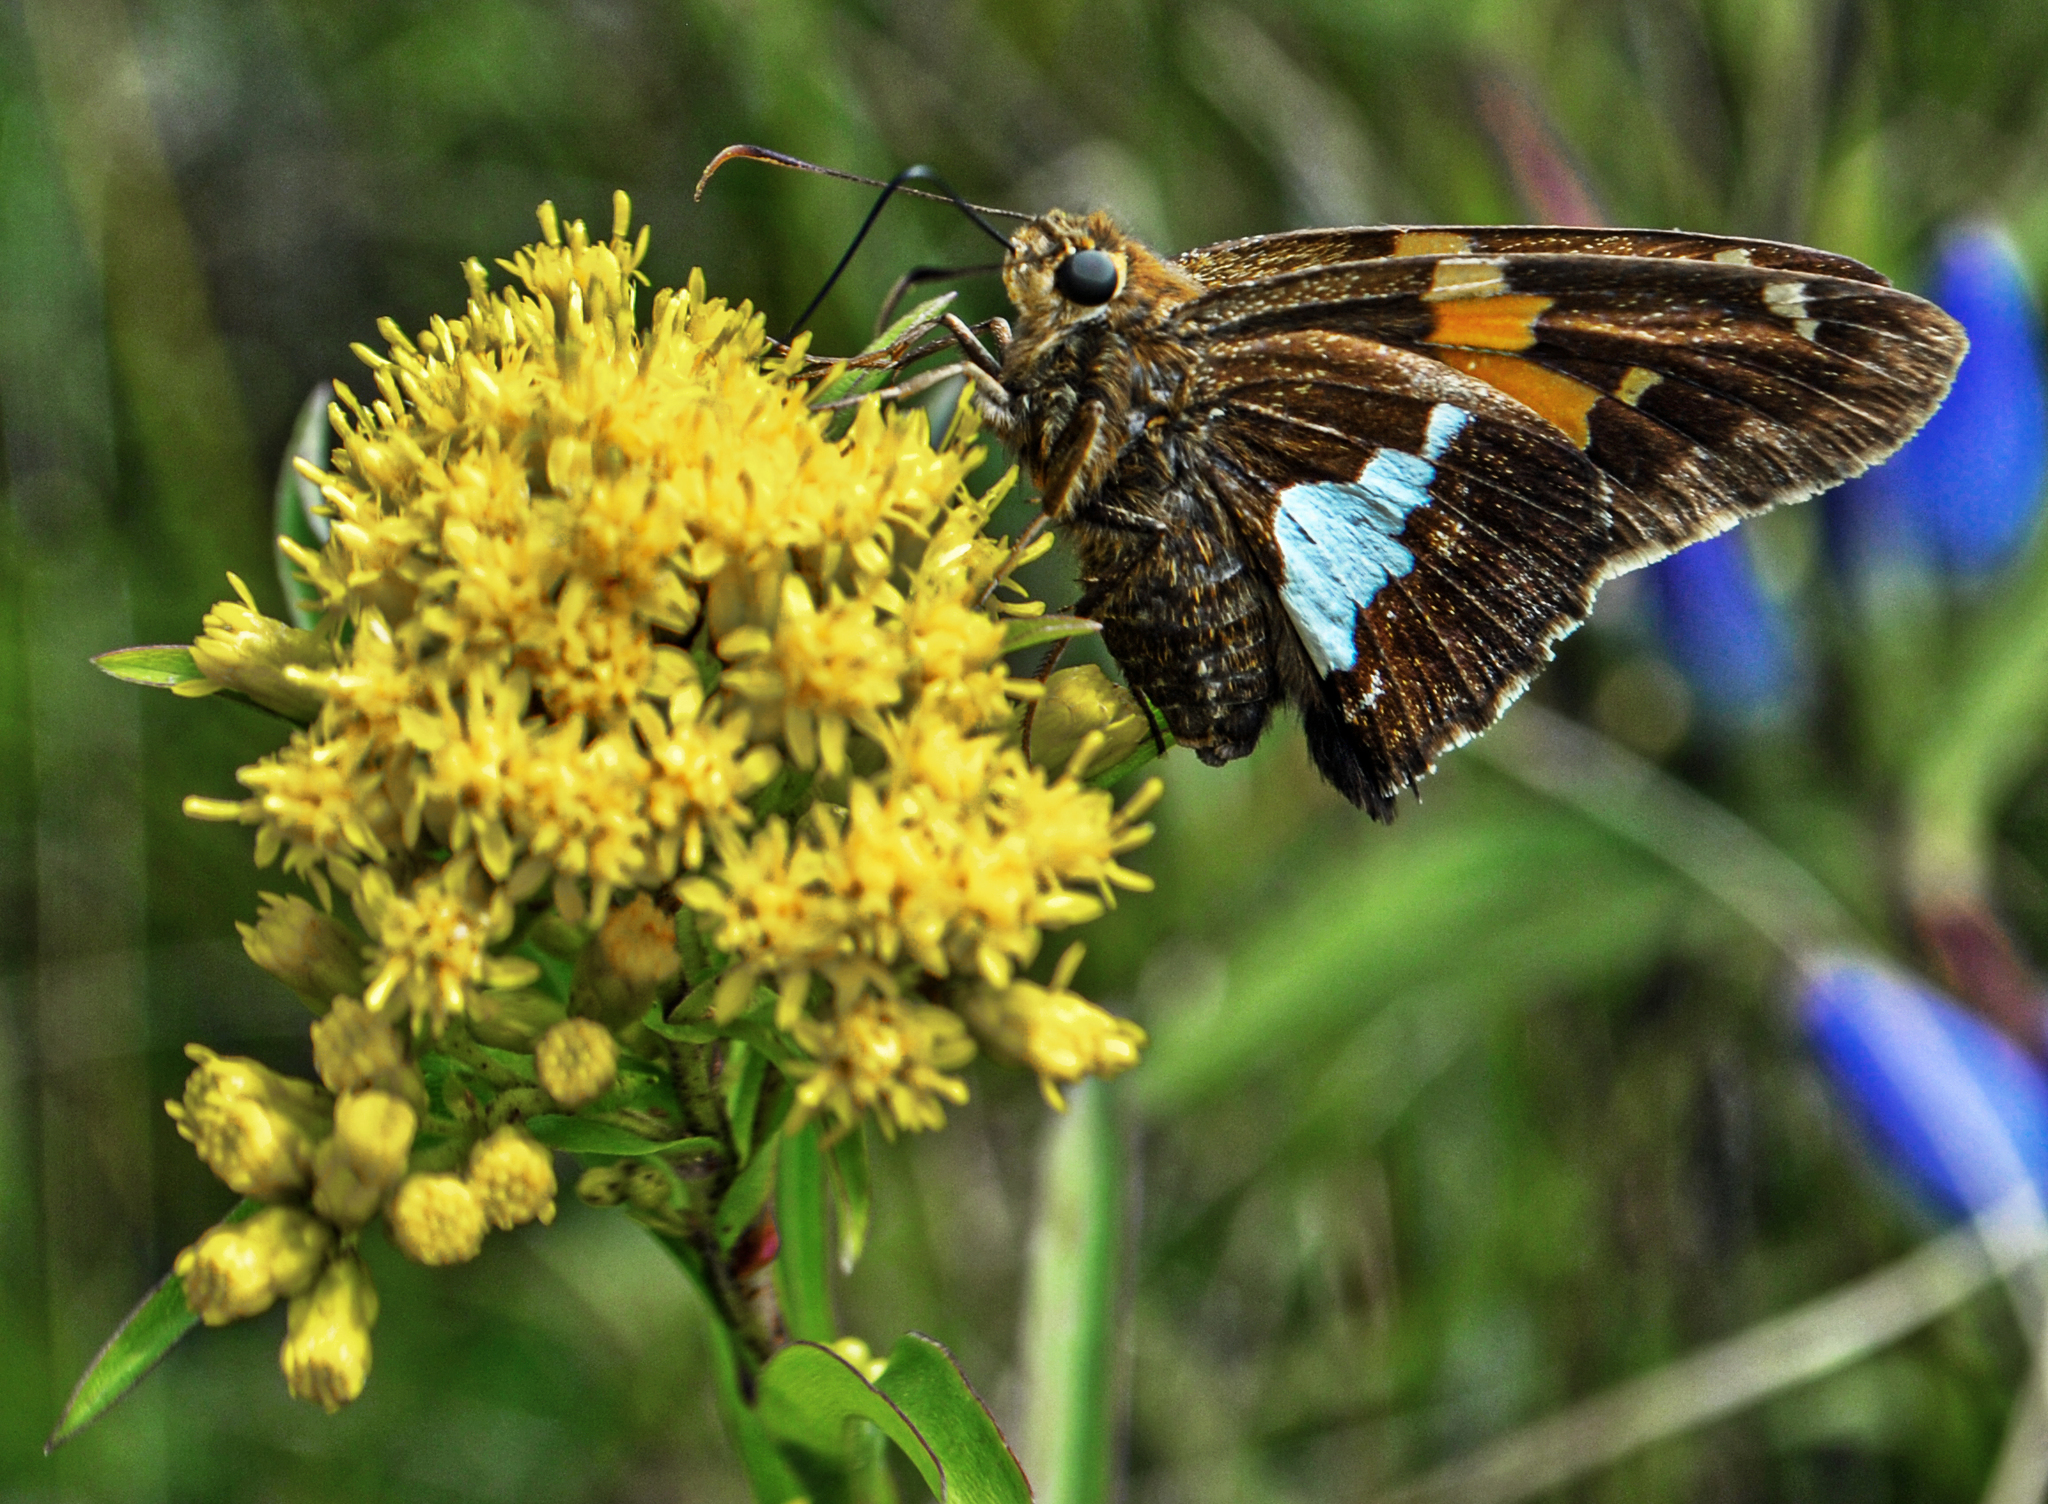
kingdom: Animalia
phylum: Arthropoda
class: Insecta
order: Lepidoptera
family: Hesperiidae
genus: Epargyreus
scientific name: Epargyreus clarus
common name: Silver-spotted skipper
